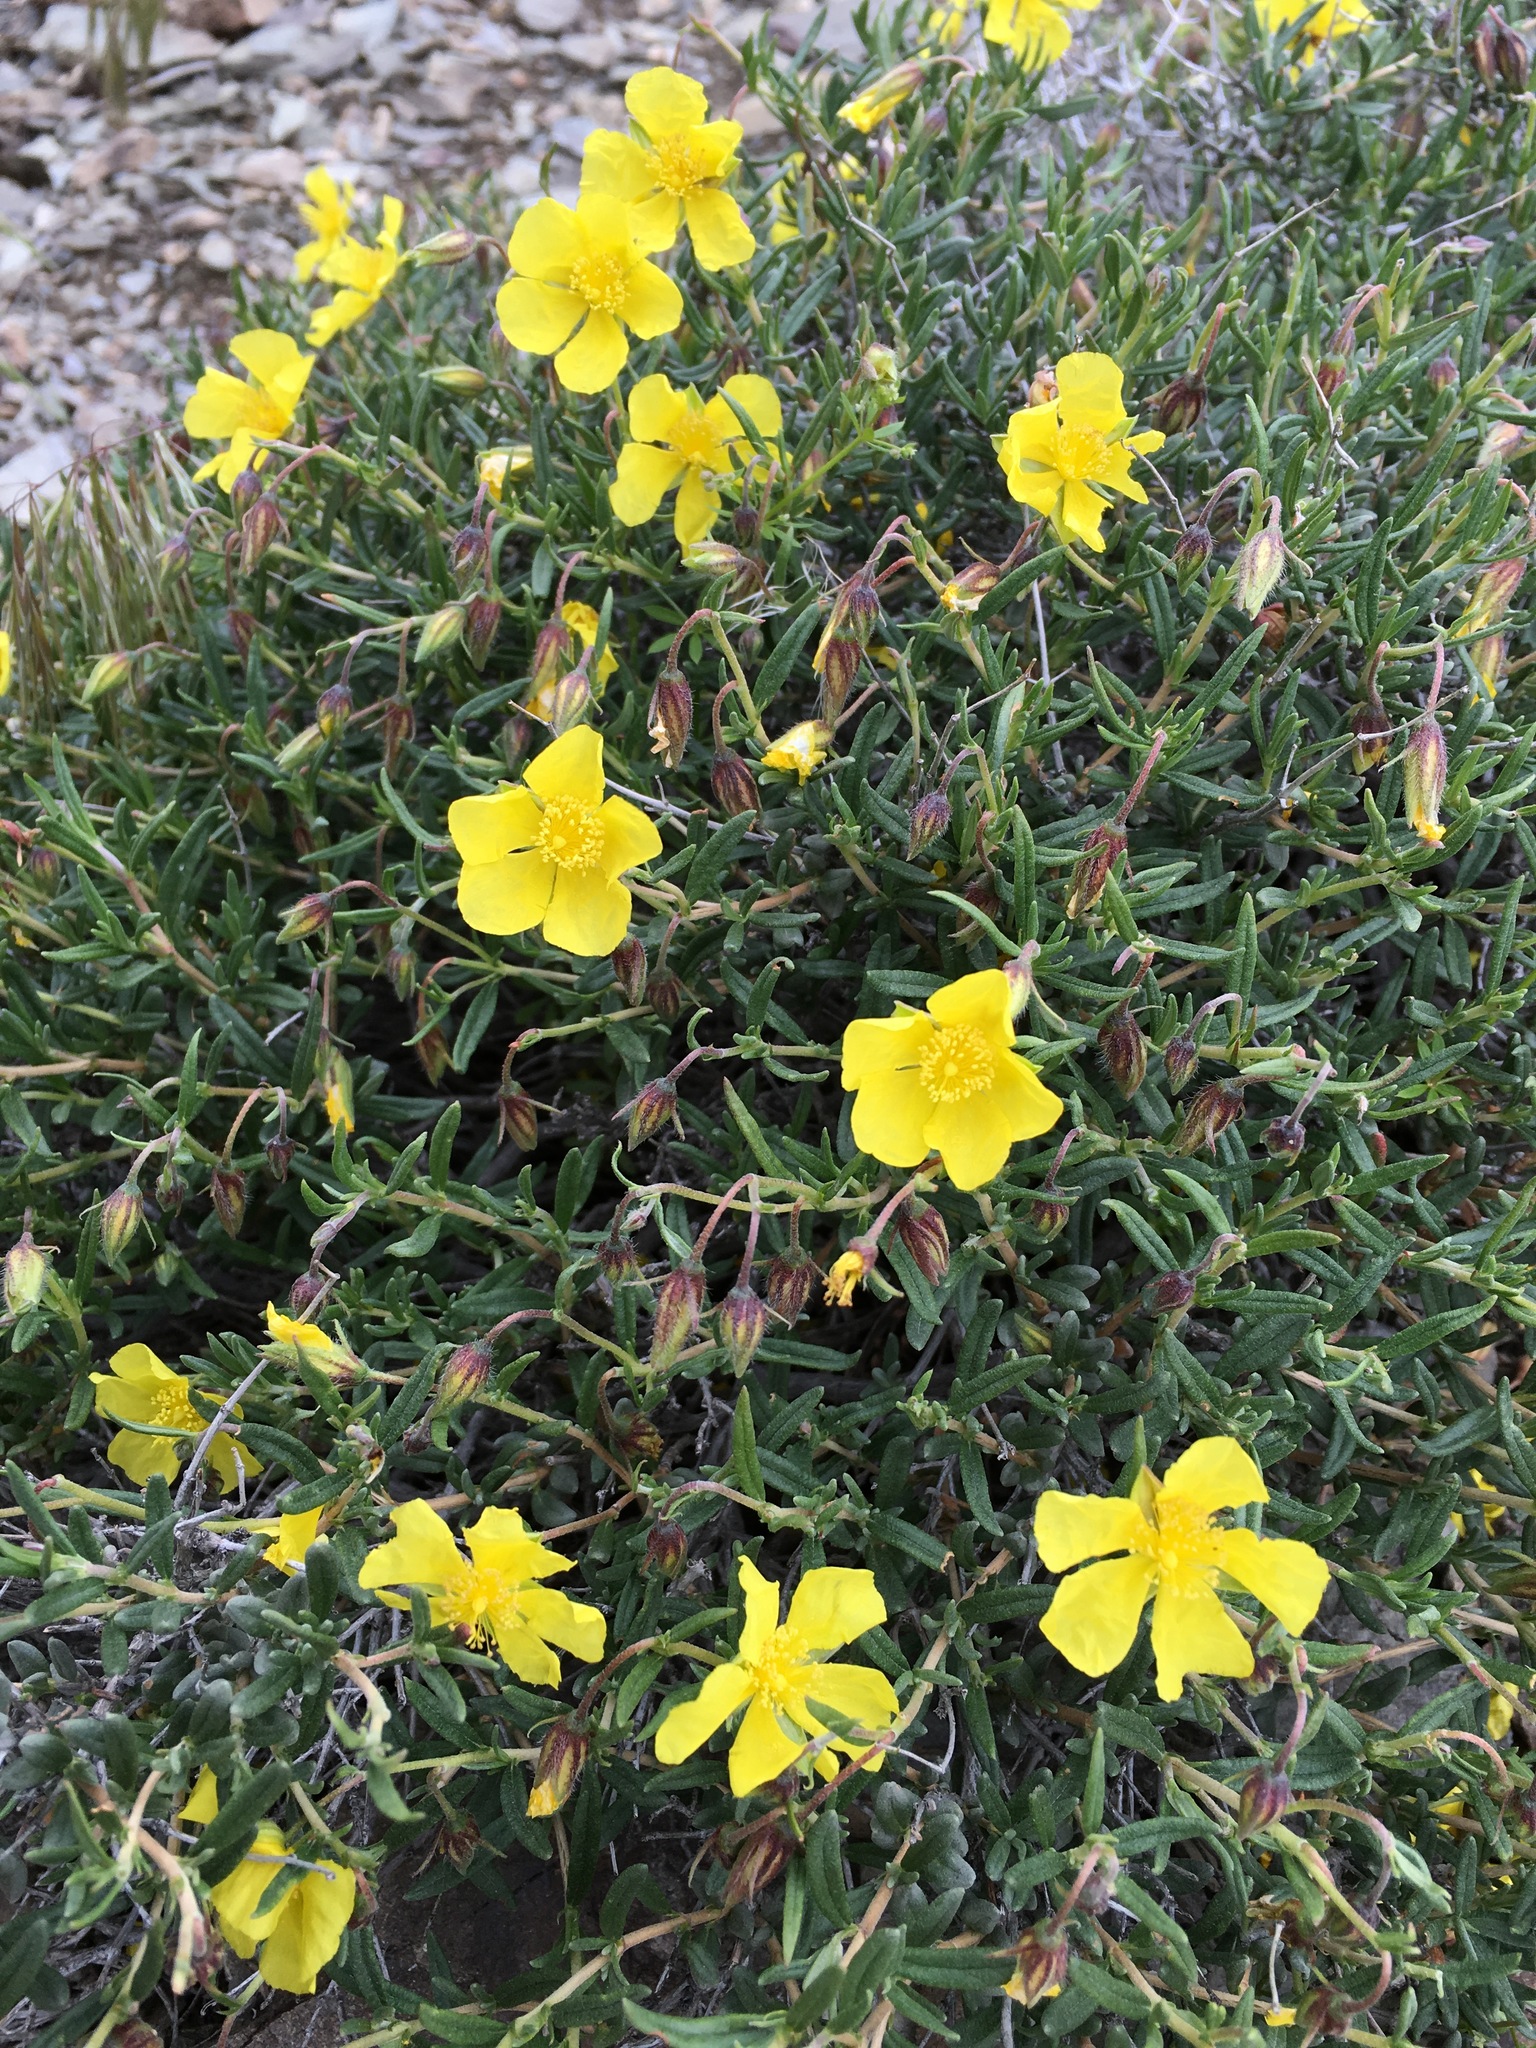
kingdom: Plantae
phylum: Tracheophyta
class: Magnoliopsida
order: Malvales
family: Cistaceae
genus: Helianthemum
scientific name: Helianthemum songaricum
